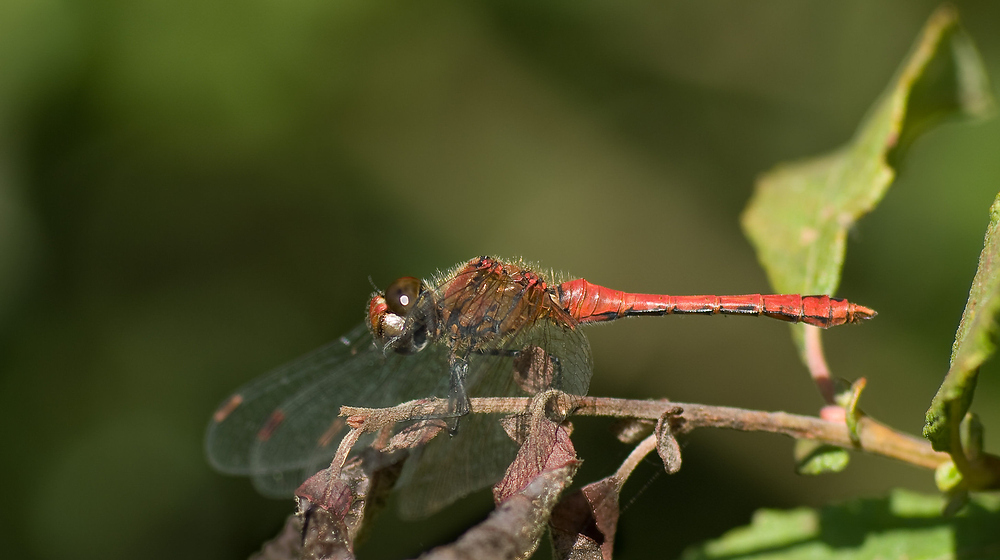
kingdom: Animalia
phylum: Arthropoda
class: Insecta
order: Odonata
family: Libellulidae
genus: Sympetrum
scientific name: Sympetrum sanguineum
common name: Ruddy darter
